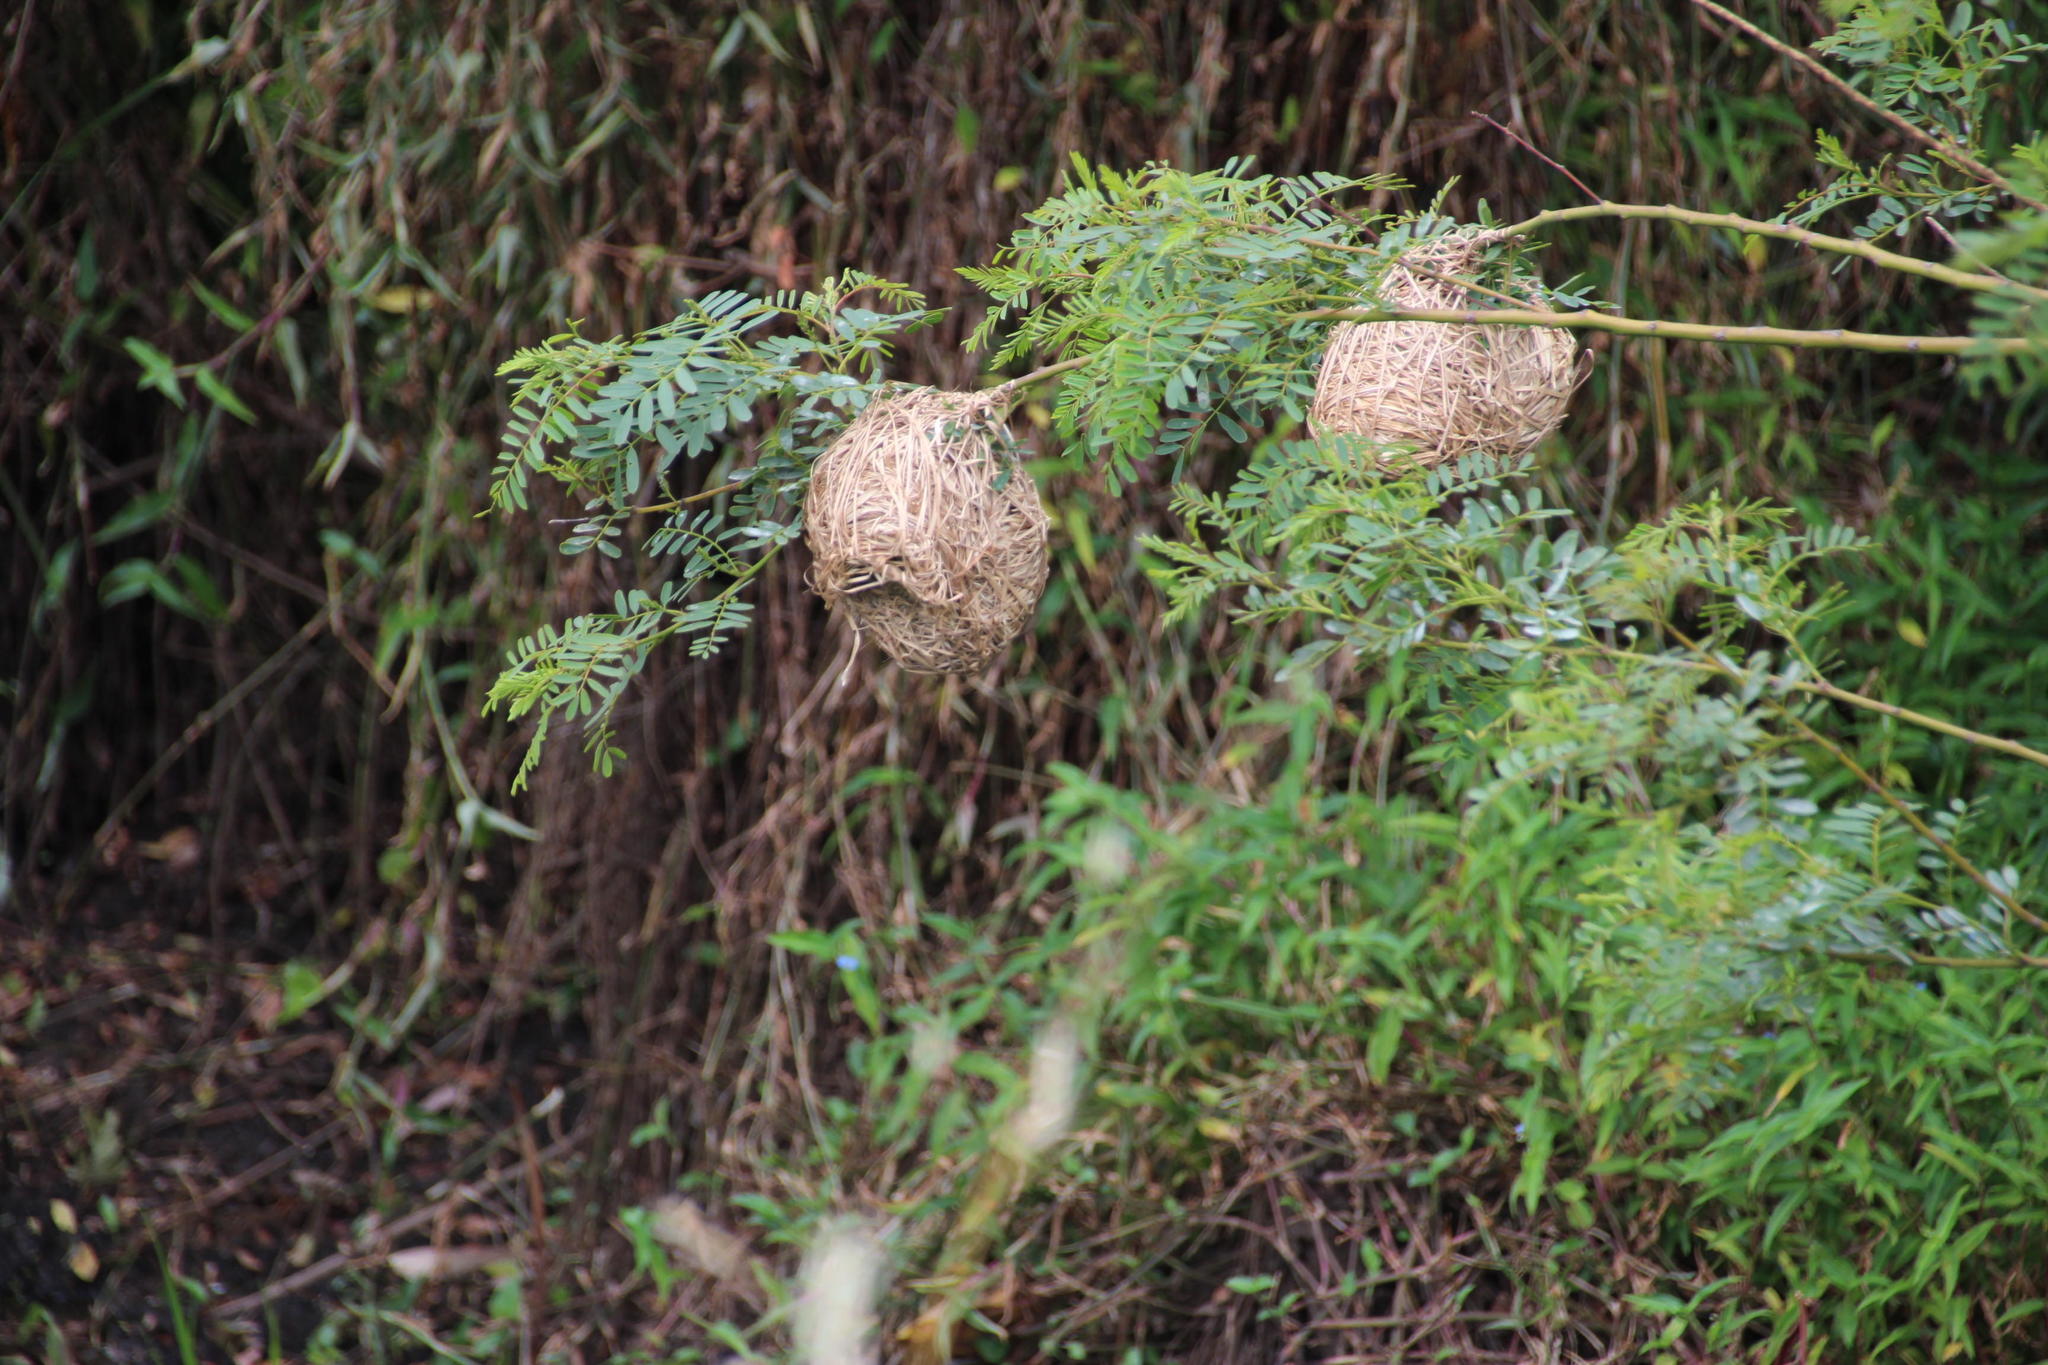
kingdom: Animalia
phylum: Chordata
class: Aves
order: Passeriformes
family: Ploceidae
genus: Ploceus
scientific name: Ploceus capensis
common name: Cape weaver
